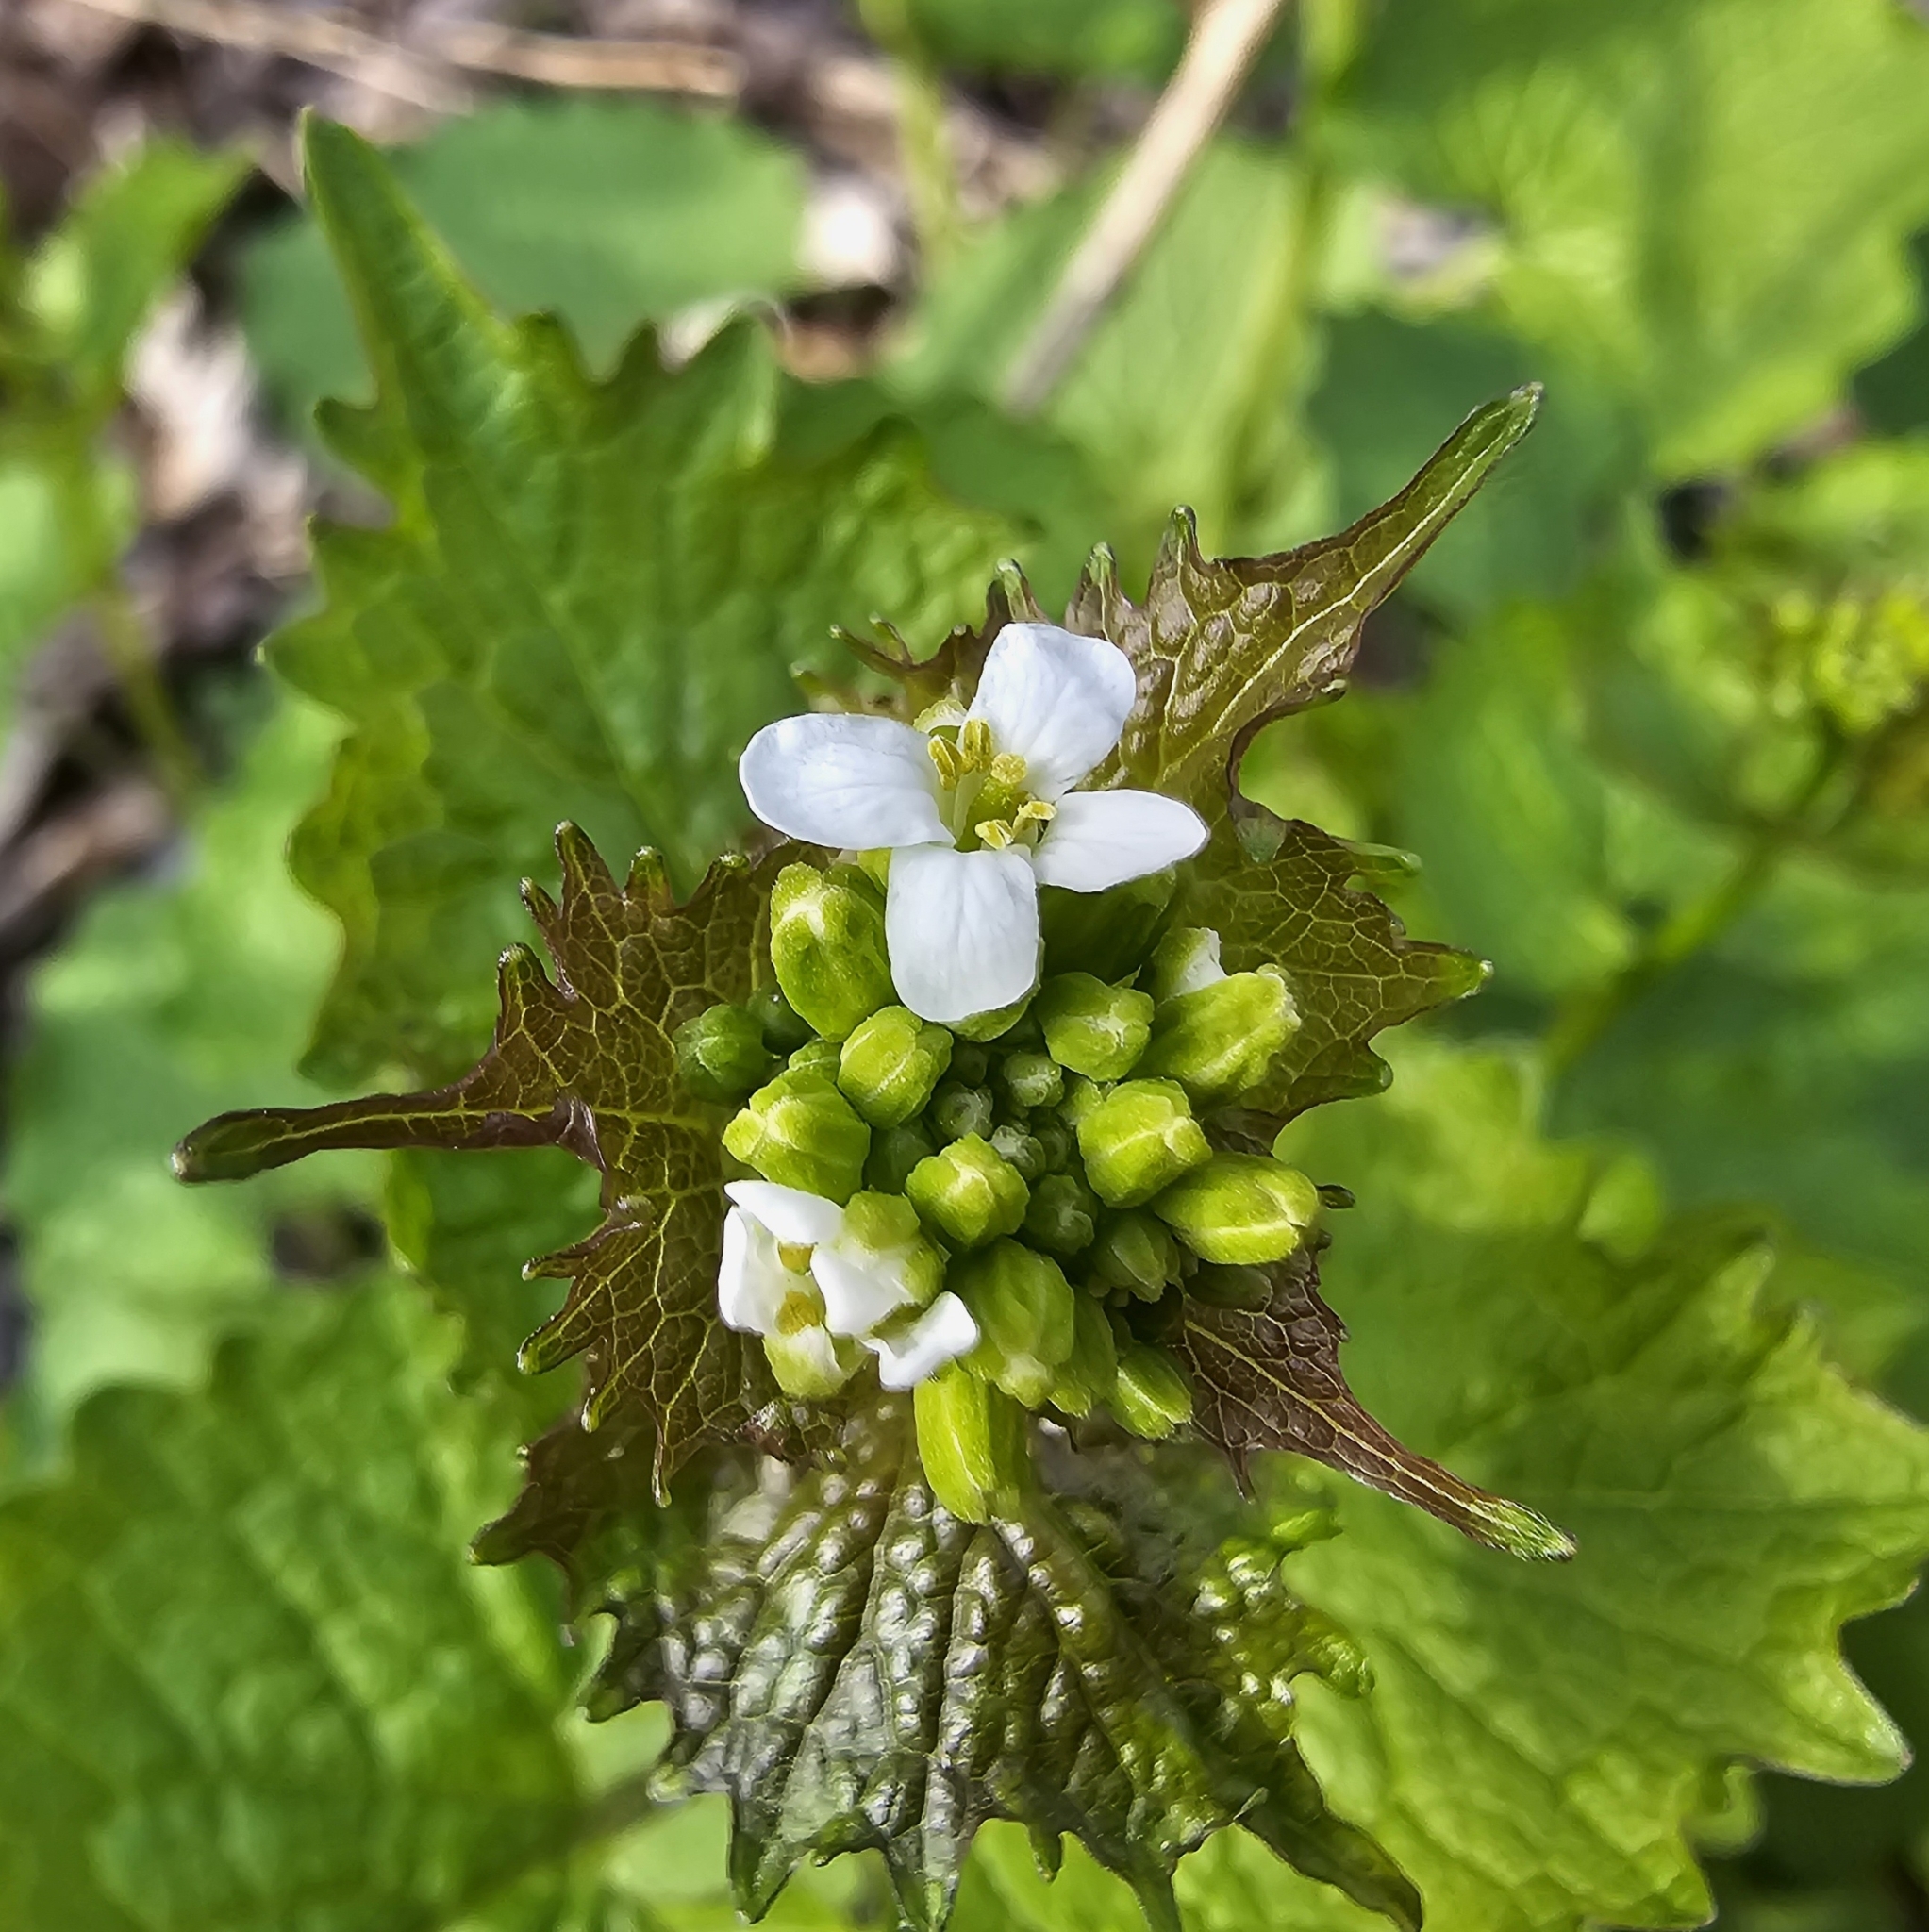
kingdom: Plantae
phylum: Tracheophyta
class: Magnoliopsida
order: Brassicales
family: Brassicaceae
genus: Alliaria
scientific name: Alliaria petiolata
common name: Garlic mustard
